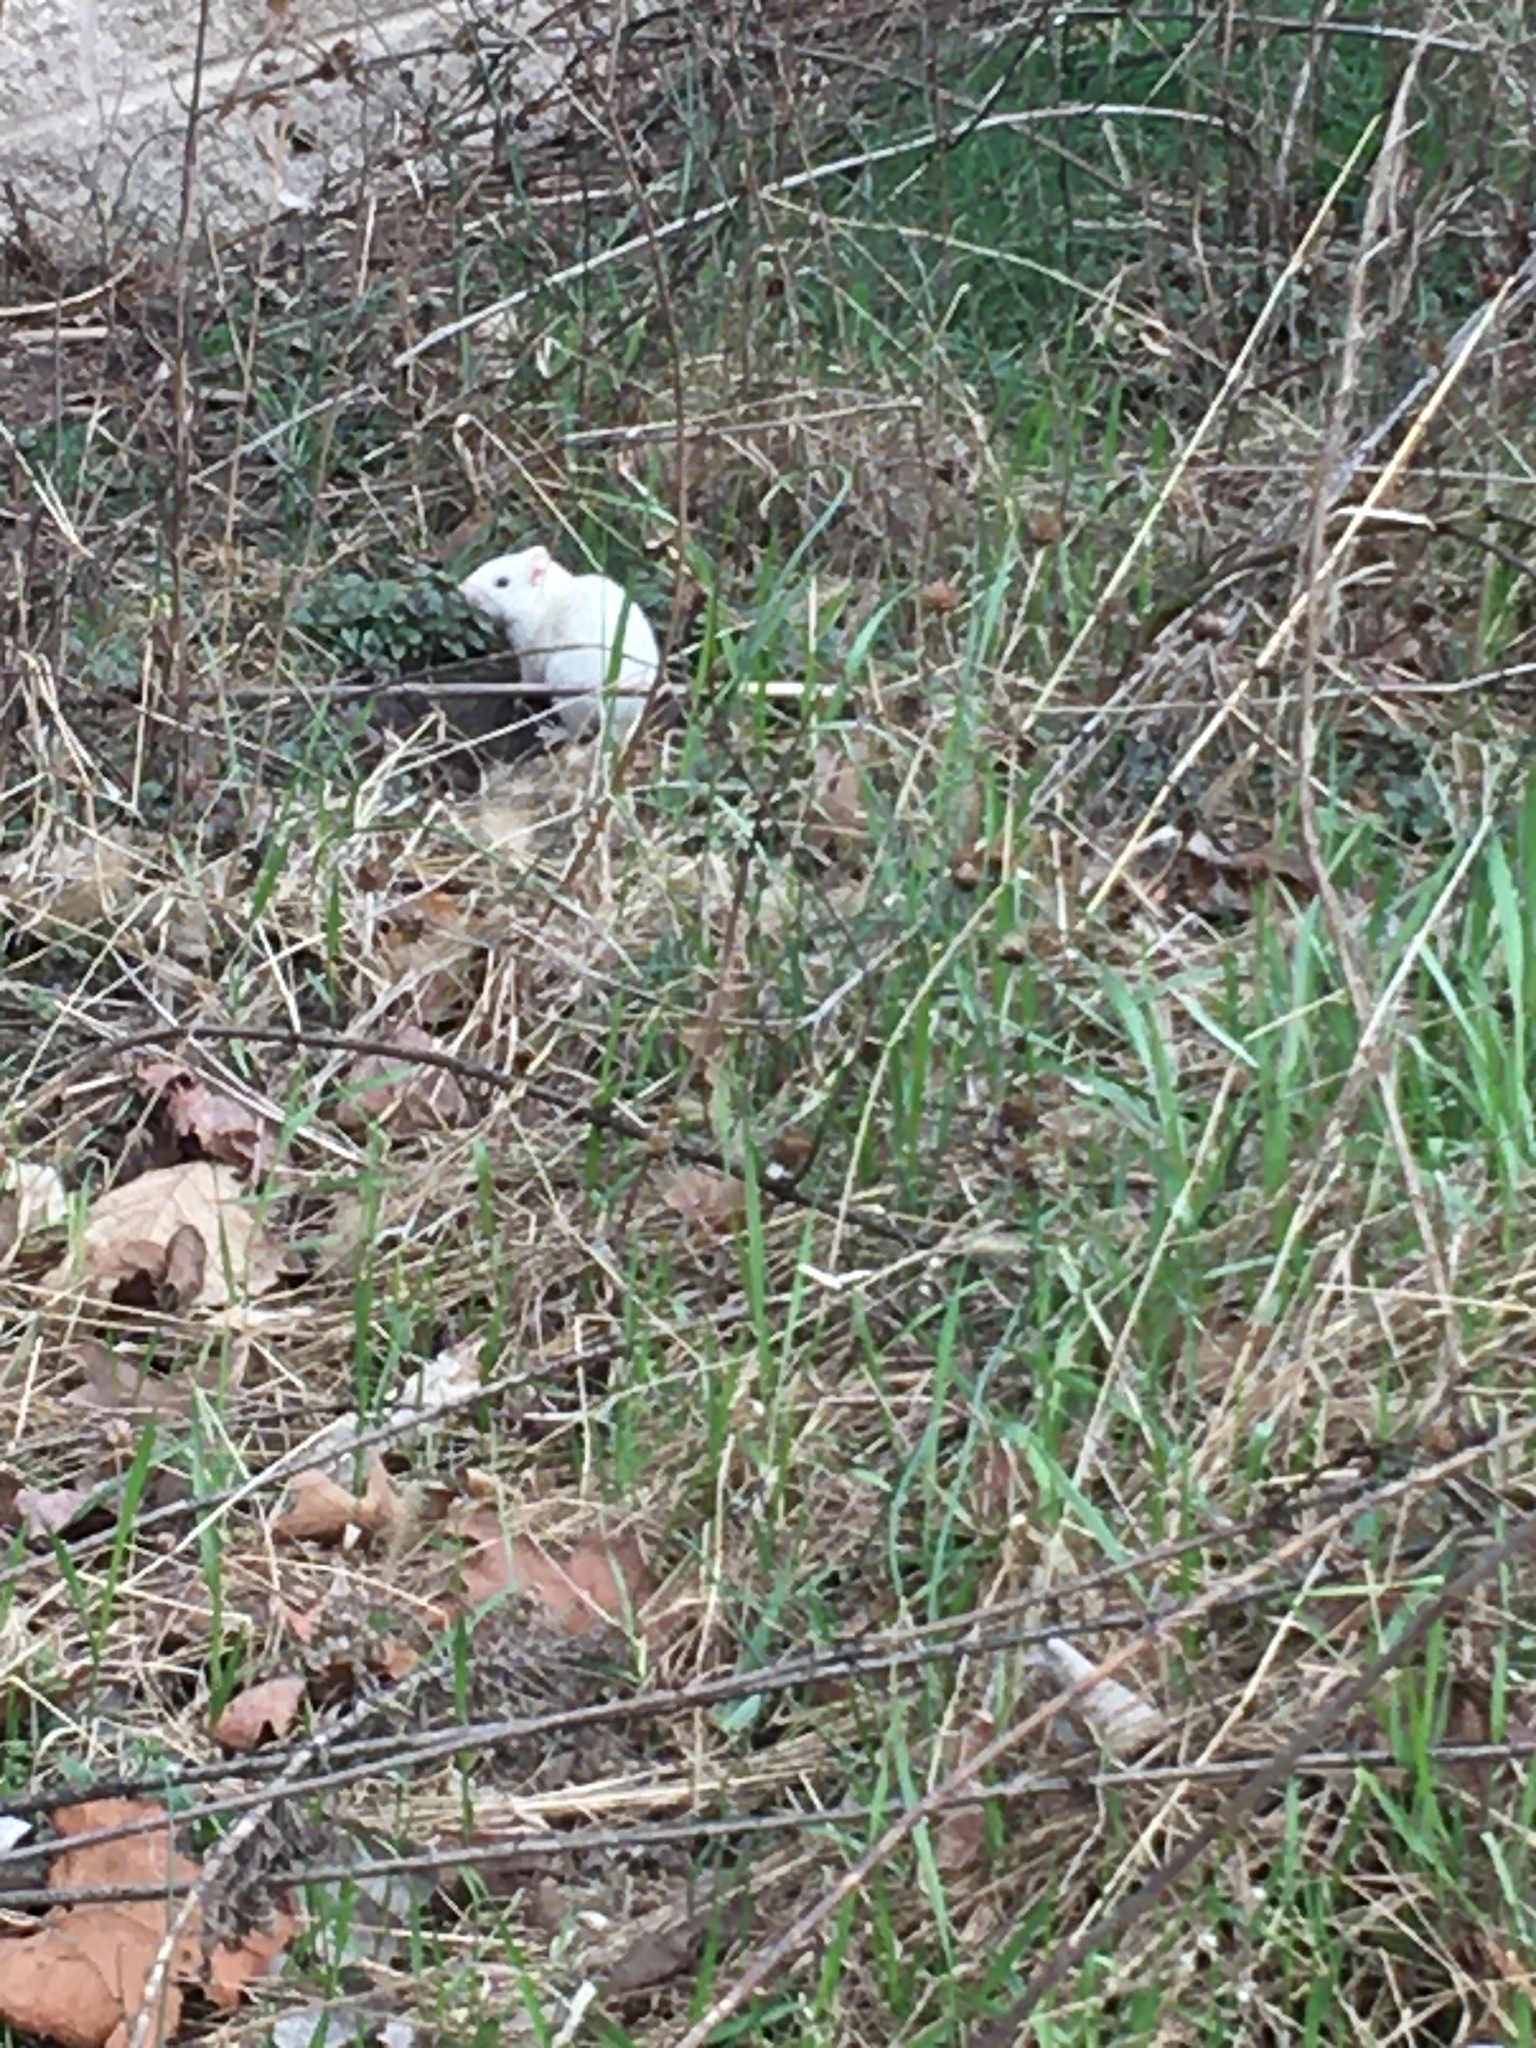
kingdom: Animalia
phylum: Chordata
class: Mammalia
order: Rodentia
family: Sciuridae
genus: Tamias
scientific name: Tamias striatus
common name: Eastern chipmunk
